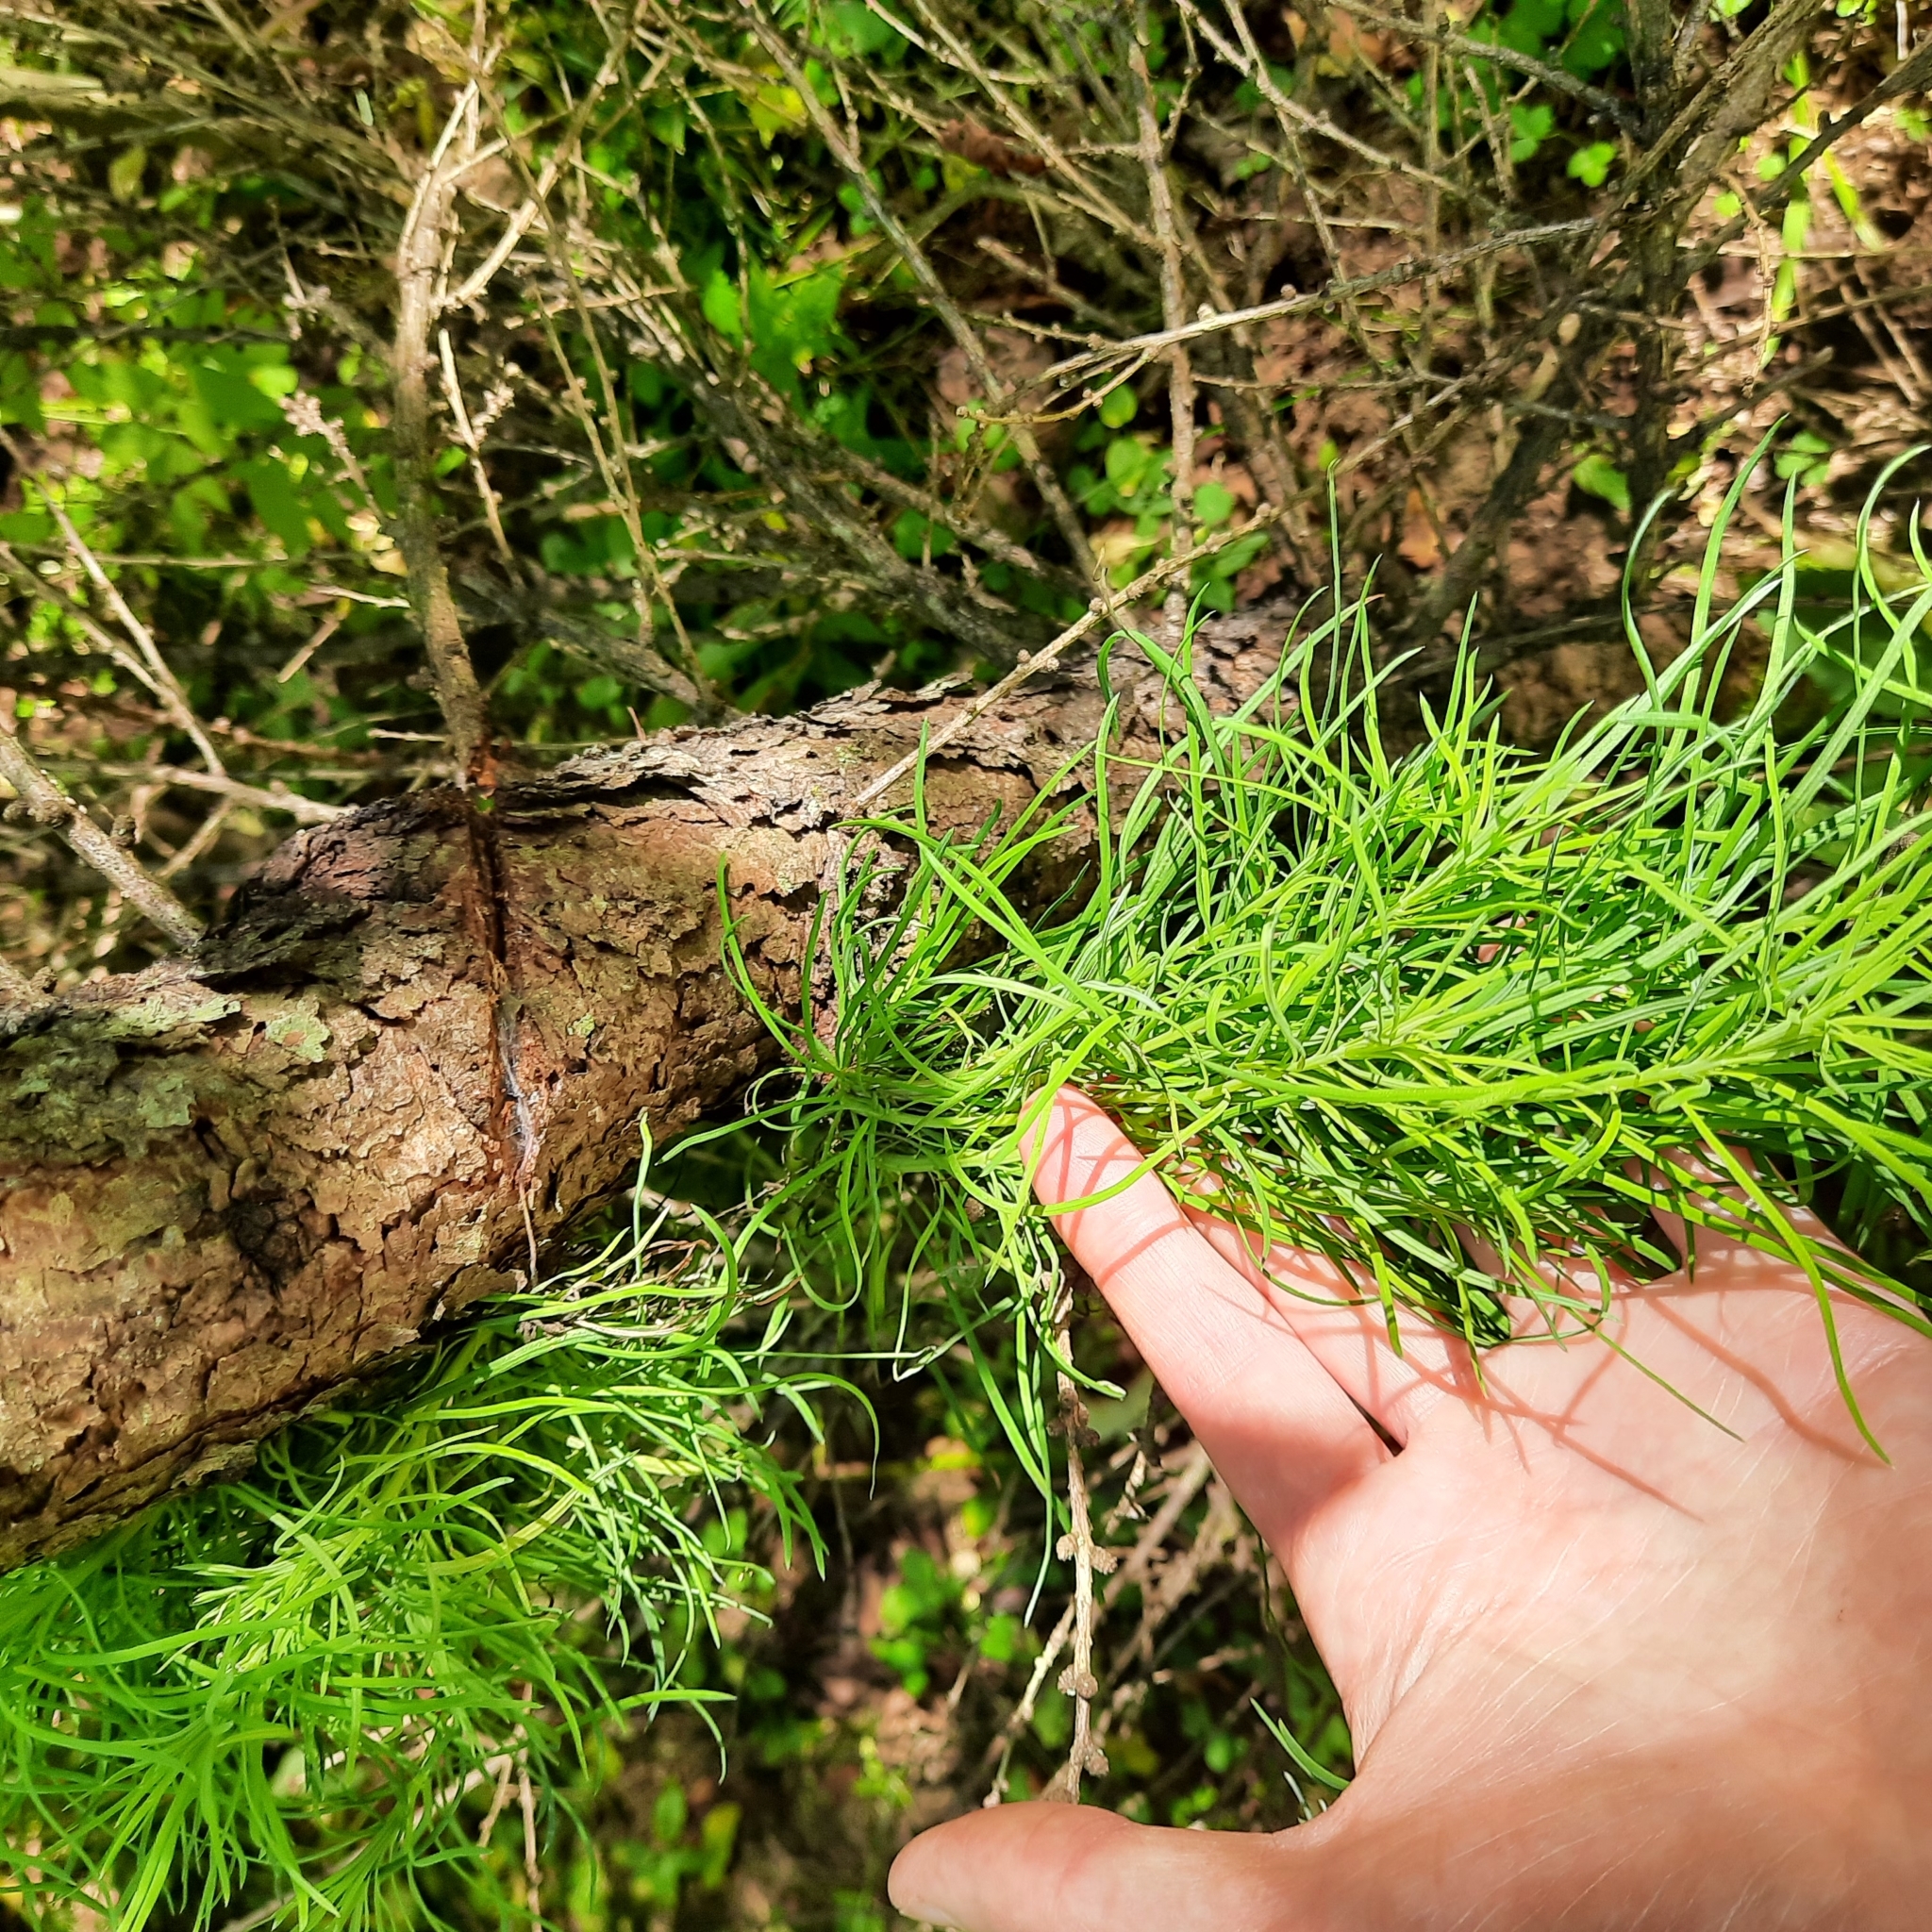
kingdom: Plantae
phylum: Tracheophyta
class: Pinopsida
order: Pinales
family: Pinaceae
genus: Larix
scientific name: Larix sibirica
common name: Siberian larch
